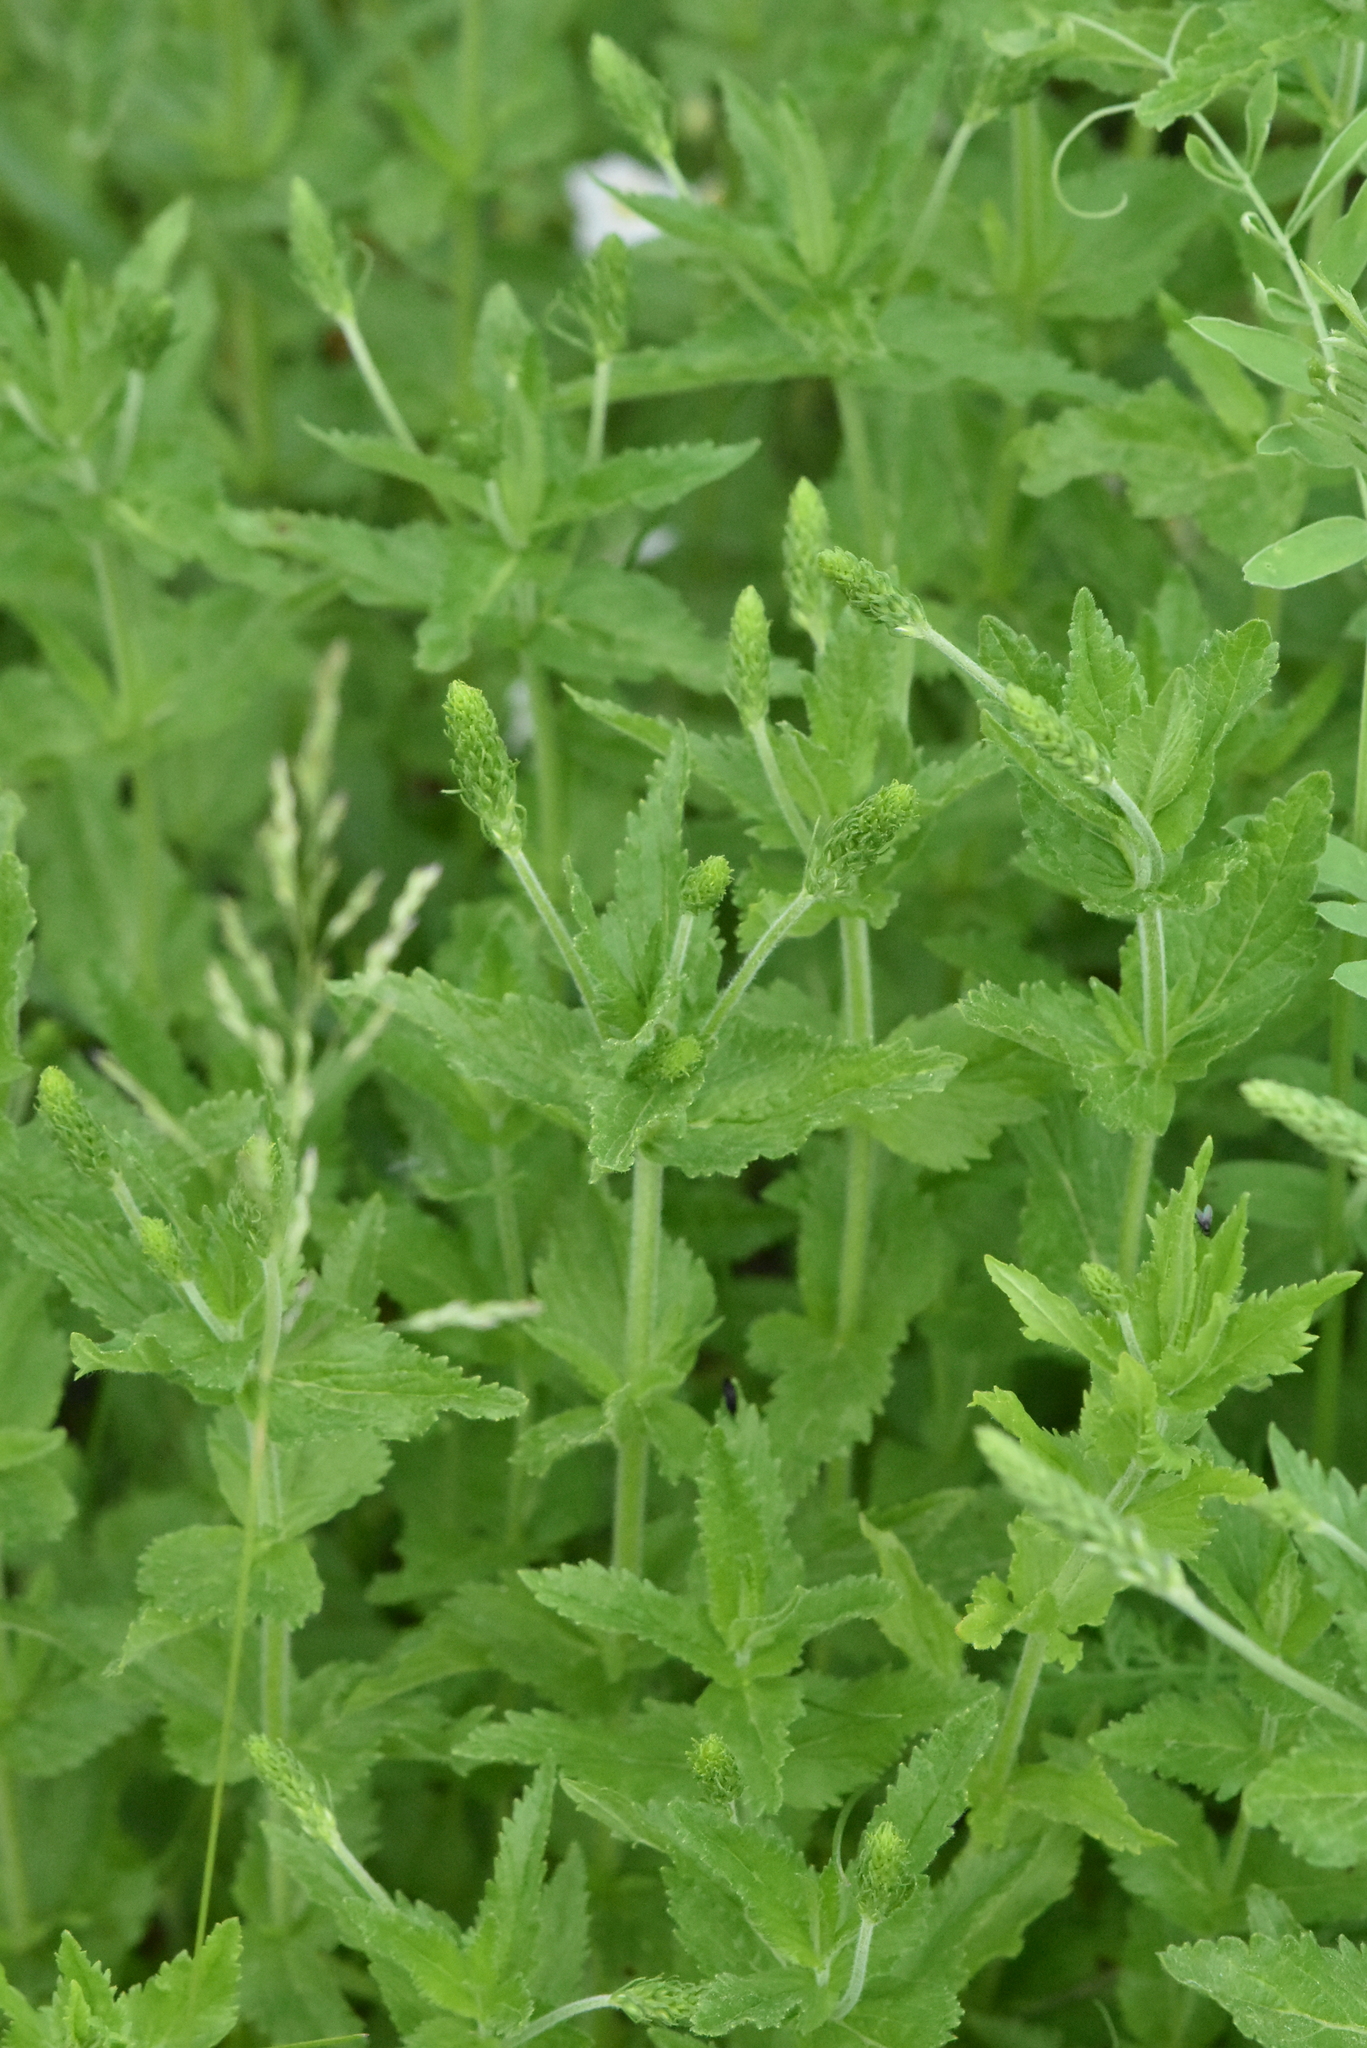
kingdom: Plantae
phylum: Tracheophyta
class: Magnoliopsida
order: Lamiales
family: Plantaginaceae
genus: Veronica
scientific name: Veronica teucrium
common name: Large speedwell
